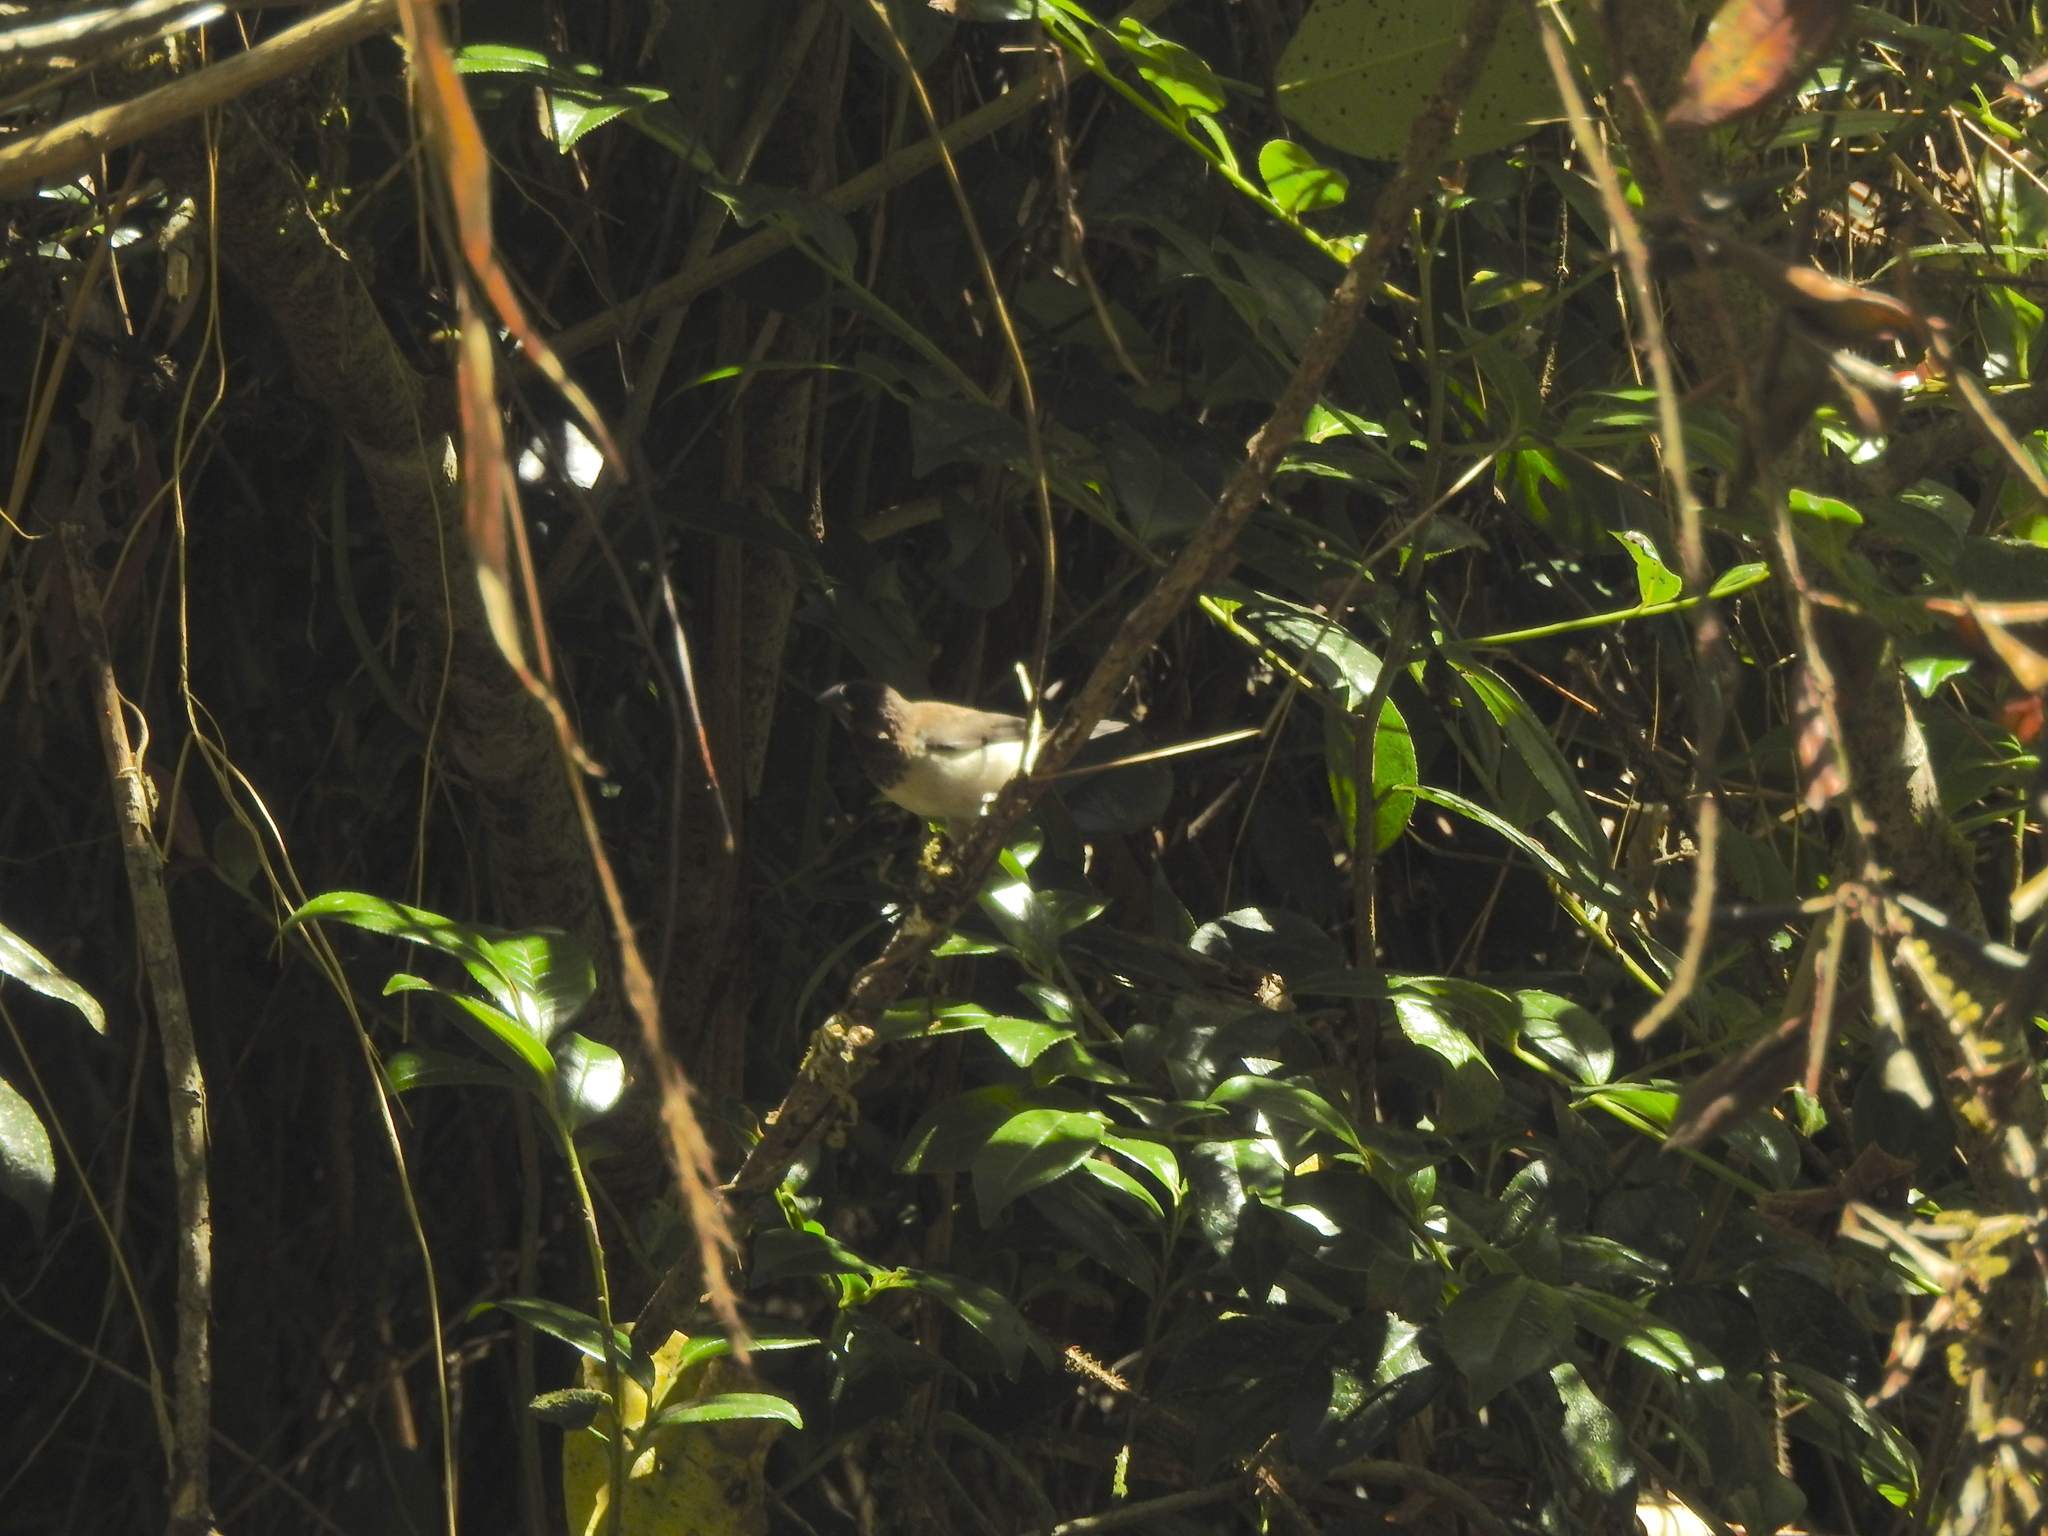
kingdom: Animalia
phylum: Chordata
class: Aves
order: Passeriformes
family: Estrildidae
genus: Lonchura
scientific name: Lonchura striata
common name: White-rumped munia
